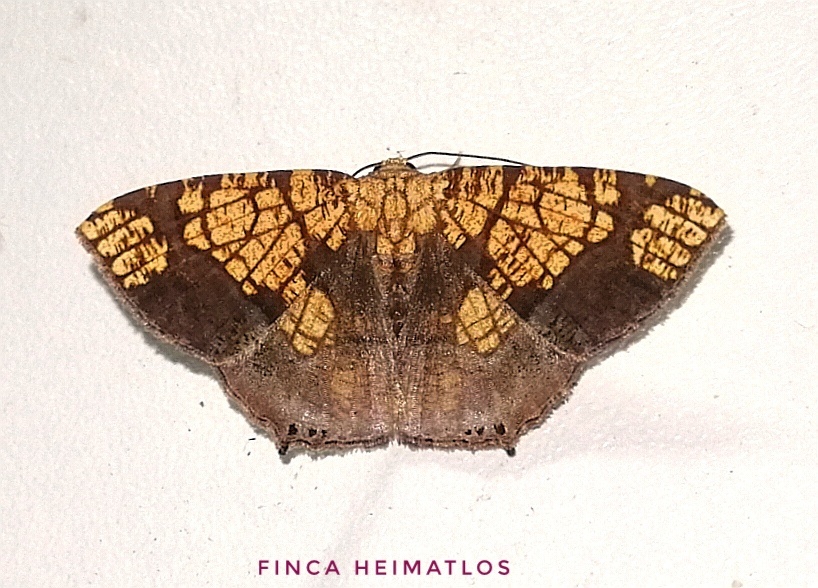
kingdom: Animalia
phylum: Arthropoda
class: Insecta
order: Lepidoptera
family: Geometridae
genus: Nematocampa
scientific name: Nematocampa completa
